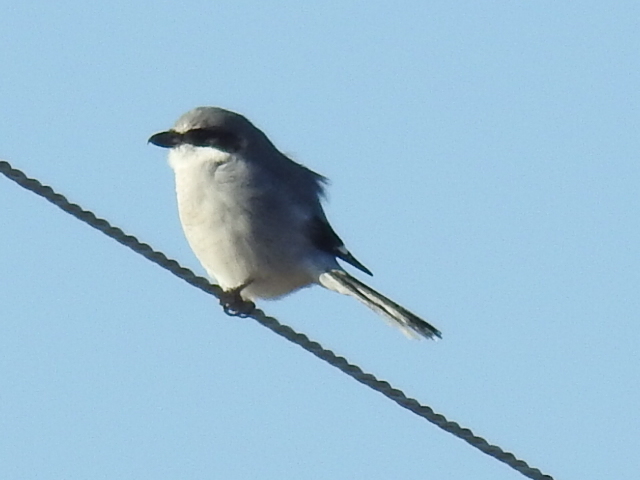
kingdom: Animalia
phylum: Chordata
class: Aves
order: Passeriformes
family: Laniidae
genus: Lanius
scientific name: Lanius ludovicianus
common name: Loggerhead shrike
